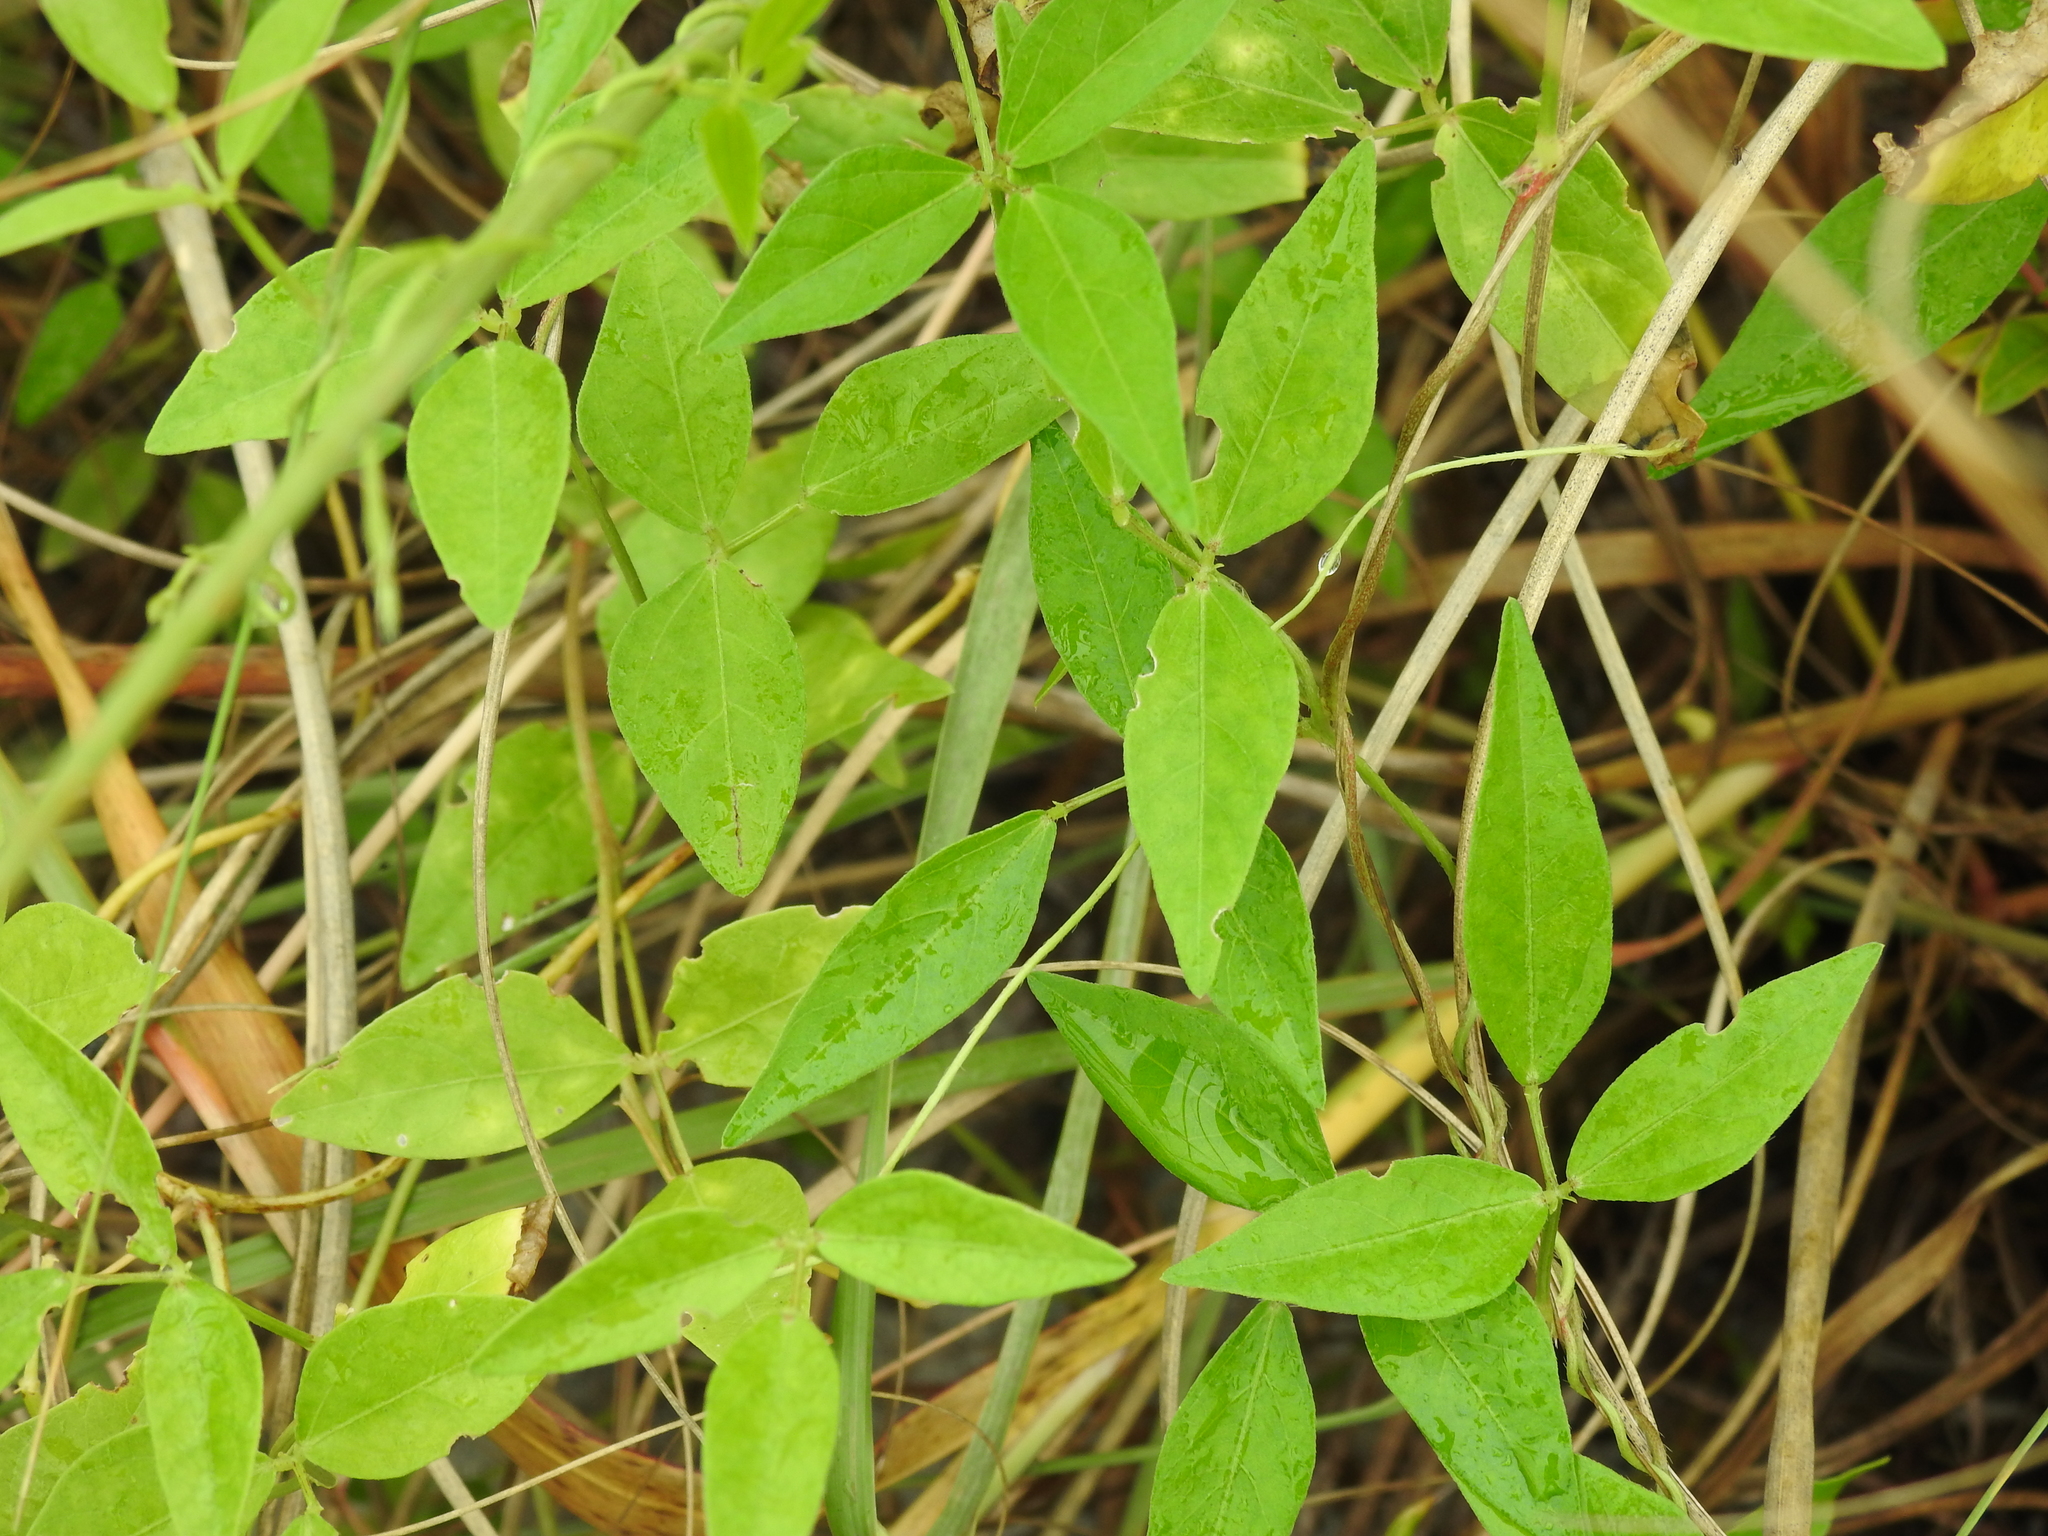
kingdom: Plantae
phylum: Tracheophyta
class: Magnoliopsida
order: Fabales
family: Fabaceae
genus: Vigna
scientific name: Vigna luteola
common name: Hairypod cowpea
